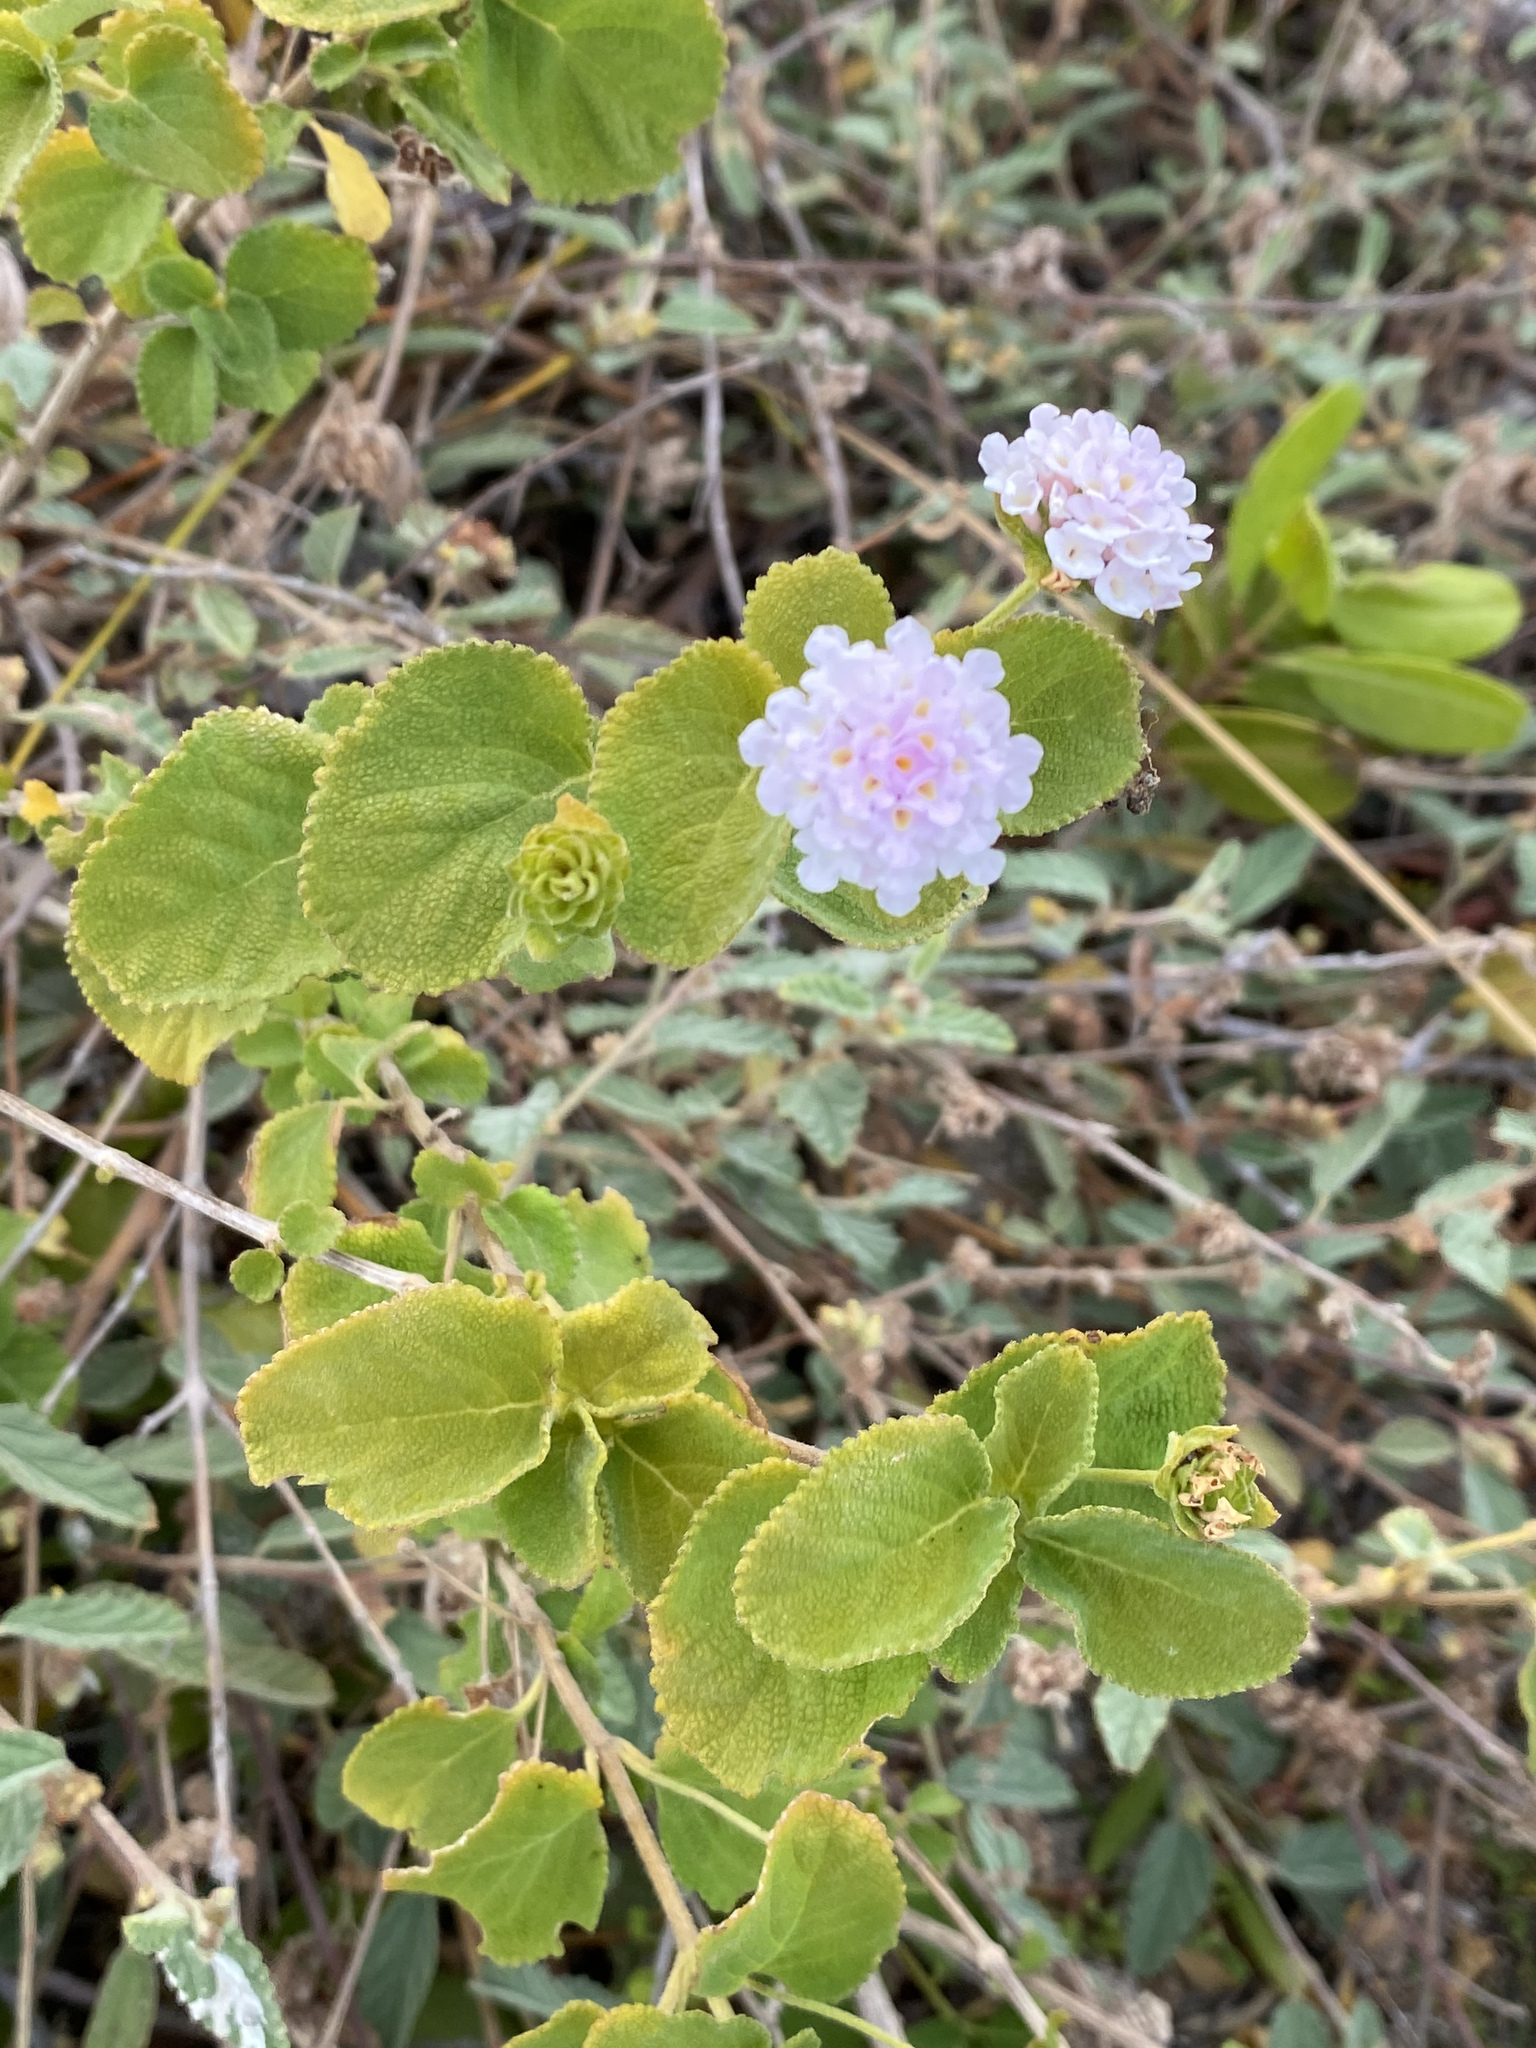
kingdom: Plantae
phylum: Tracheophyta
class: Magnoliopsida
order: Lamiales
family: Verbenaceae
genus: Lantana
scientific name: Lantana involucrata
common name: Black sage
